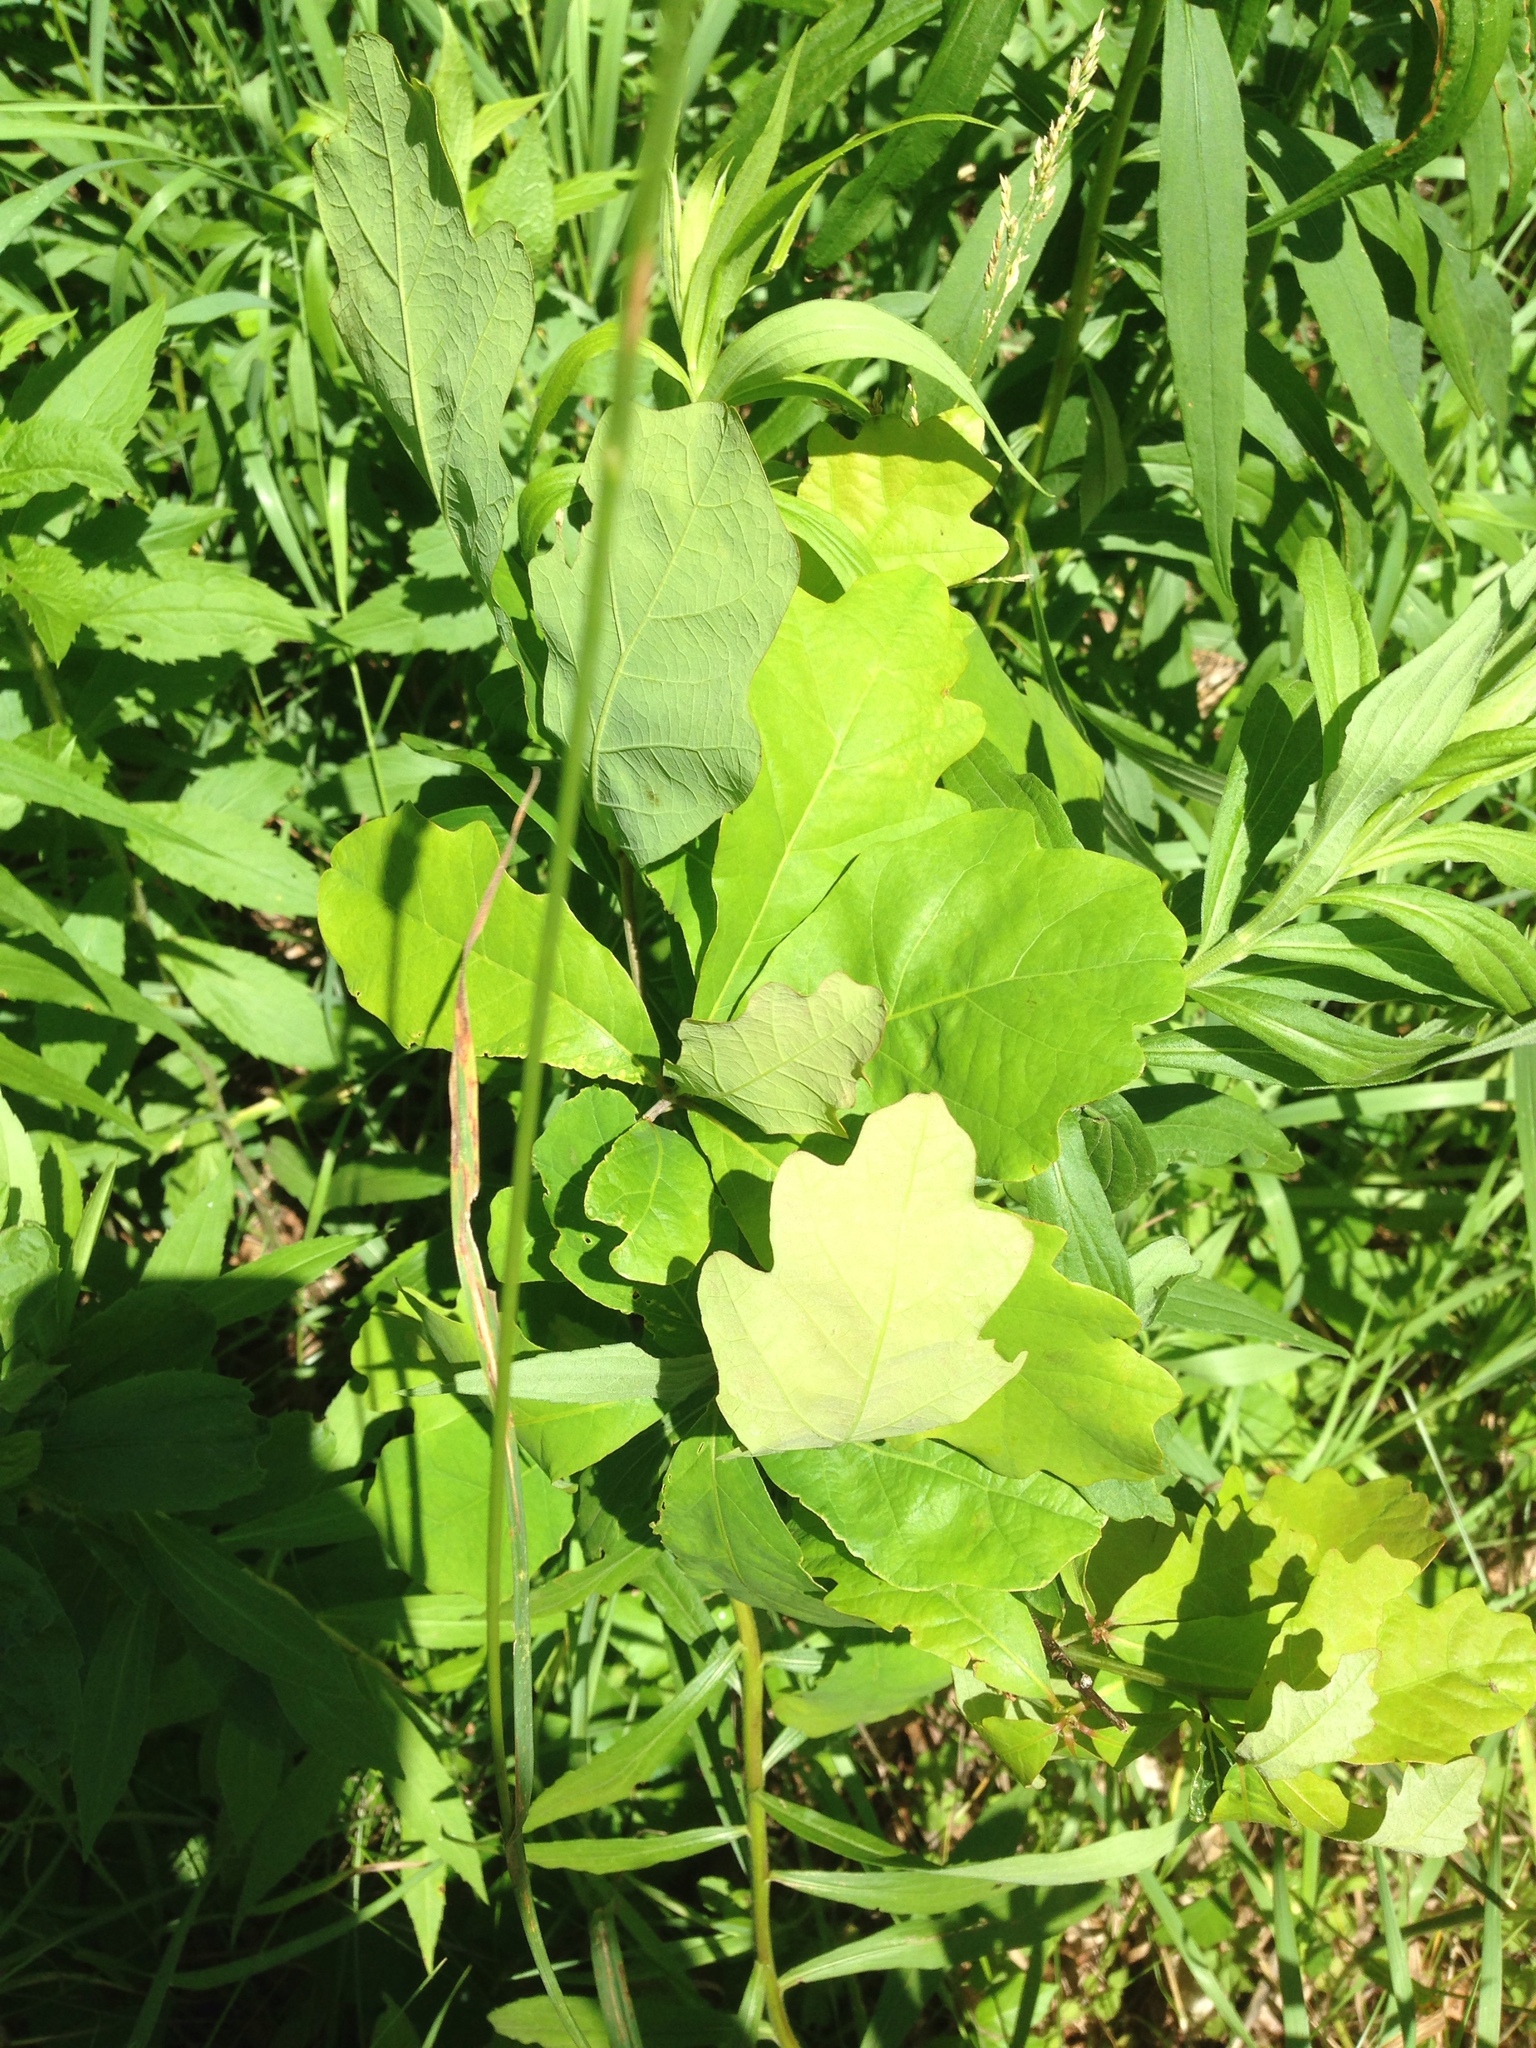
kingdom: Plantae
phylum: Tracheophyta
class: Magnoliopsida
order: Fagales
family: Fagaceae
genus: Quercus
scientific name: Quercus alba
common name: White oak
